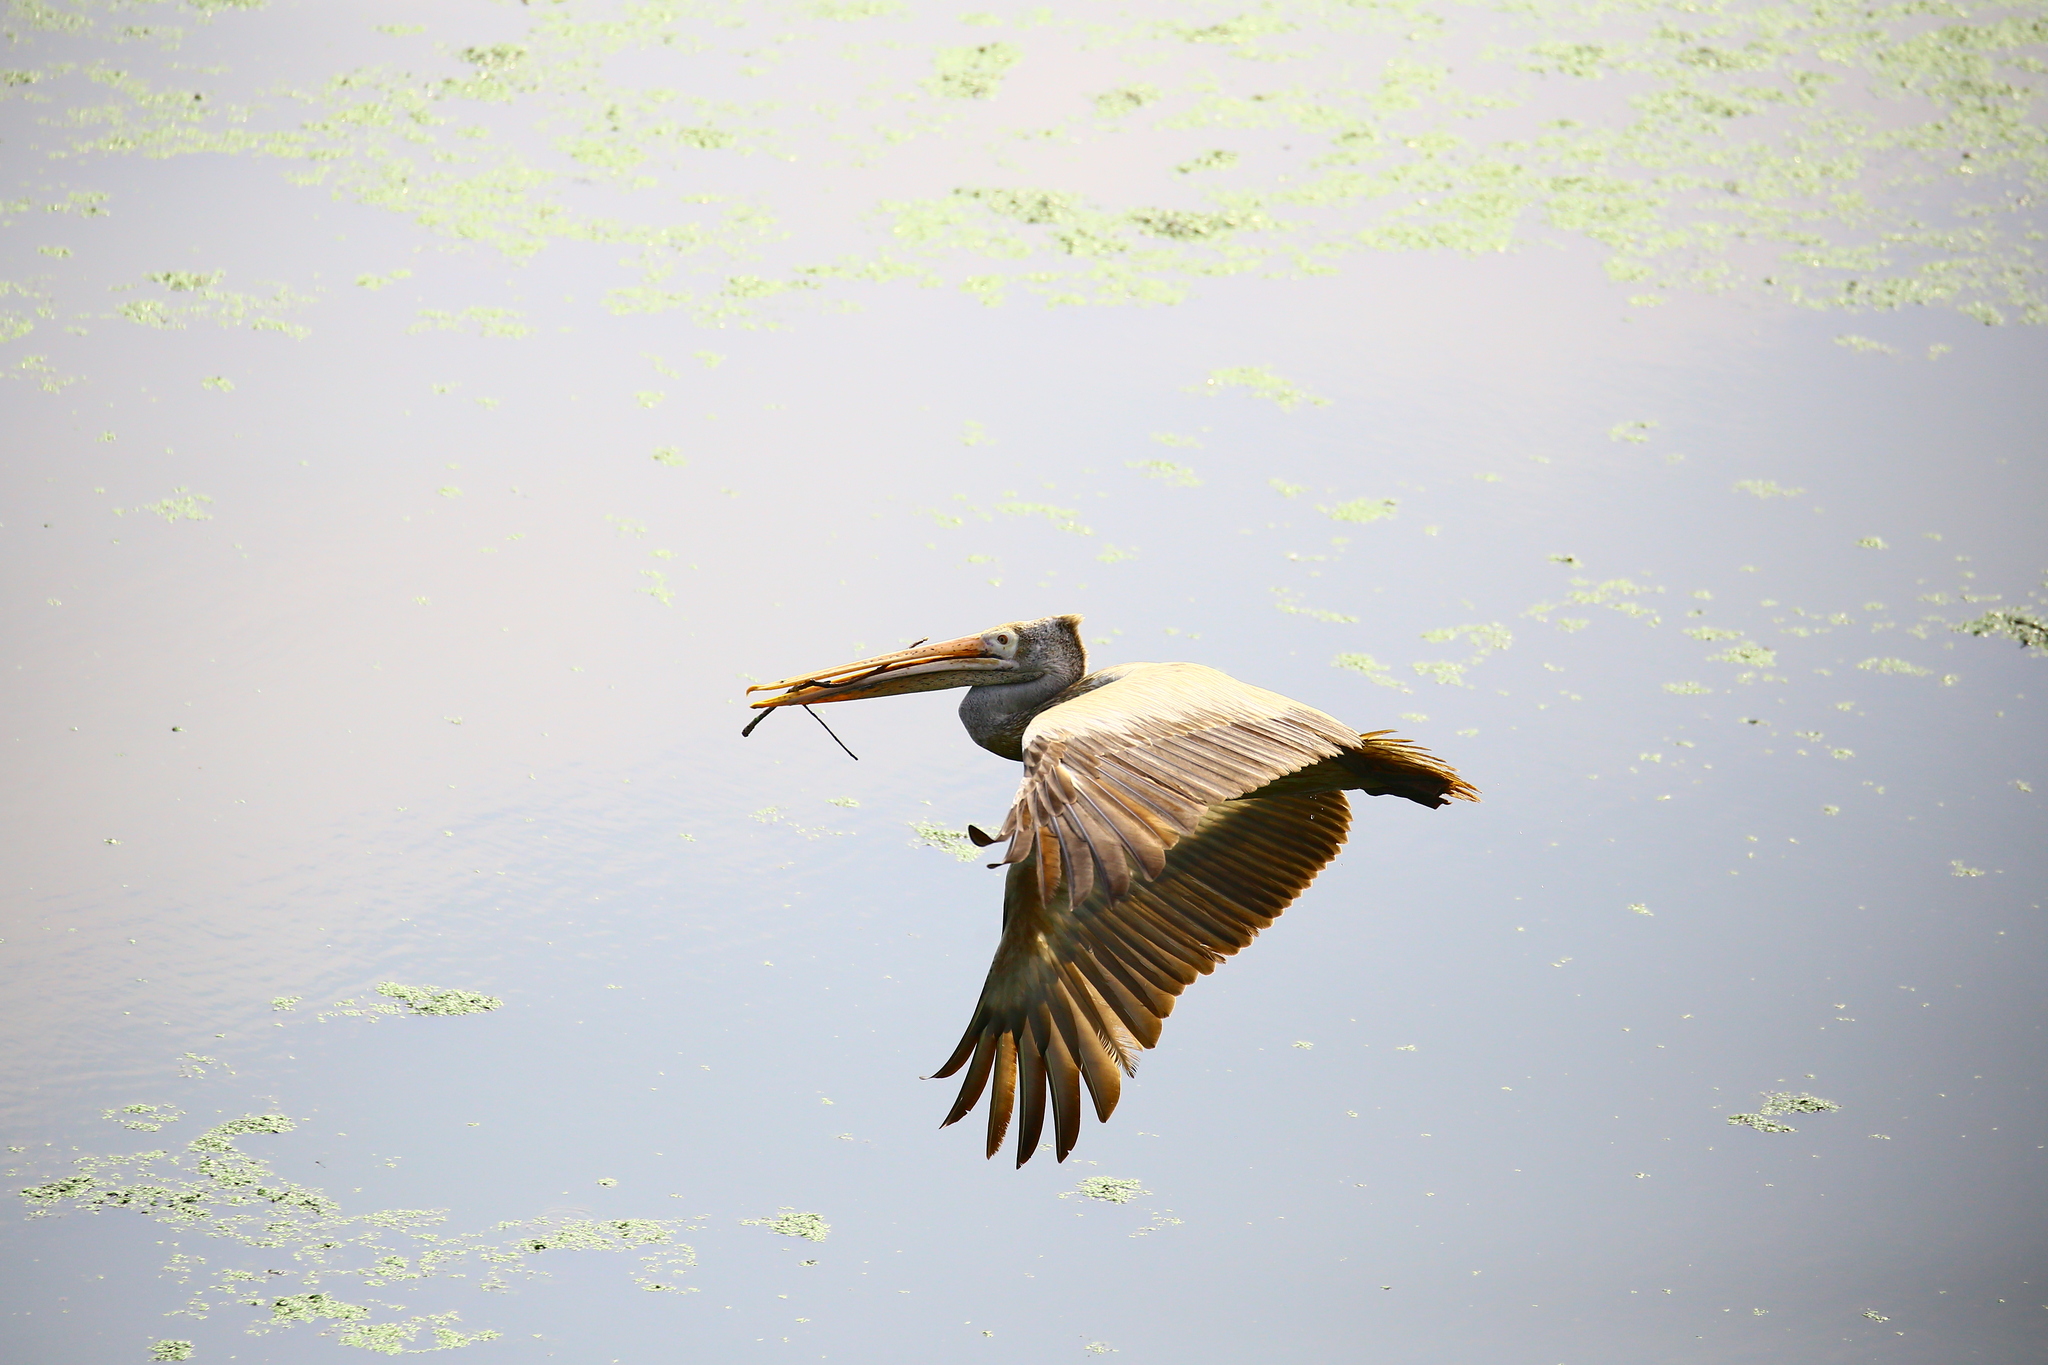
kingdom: Animalia
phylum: Chordata
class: Aves
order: Pelecaniformes
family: Pelecanidae
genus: Pelecanus
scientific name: Pelecanus philippensis
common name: Spot-billed pelican
